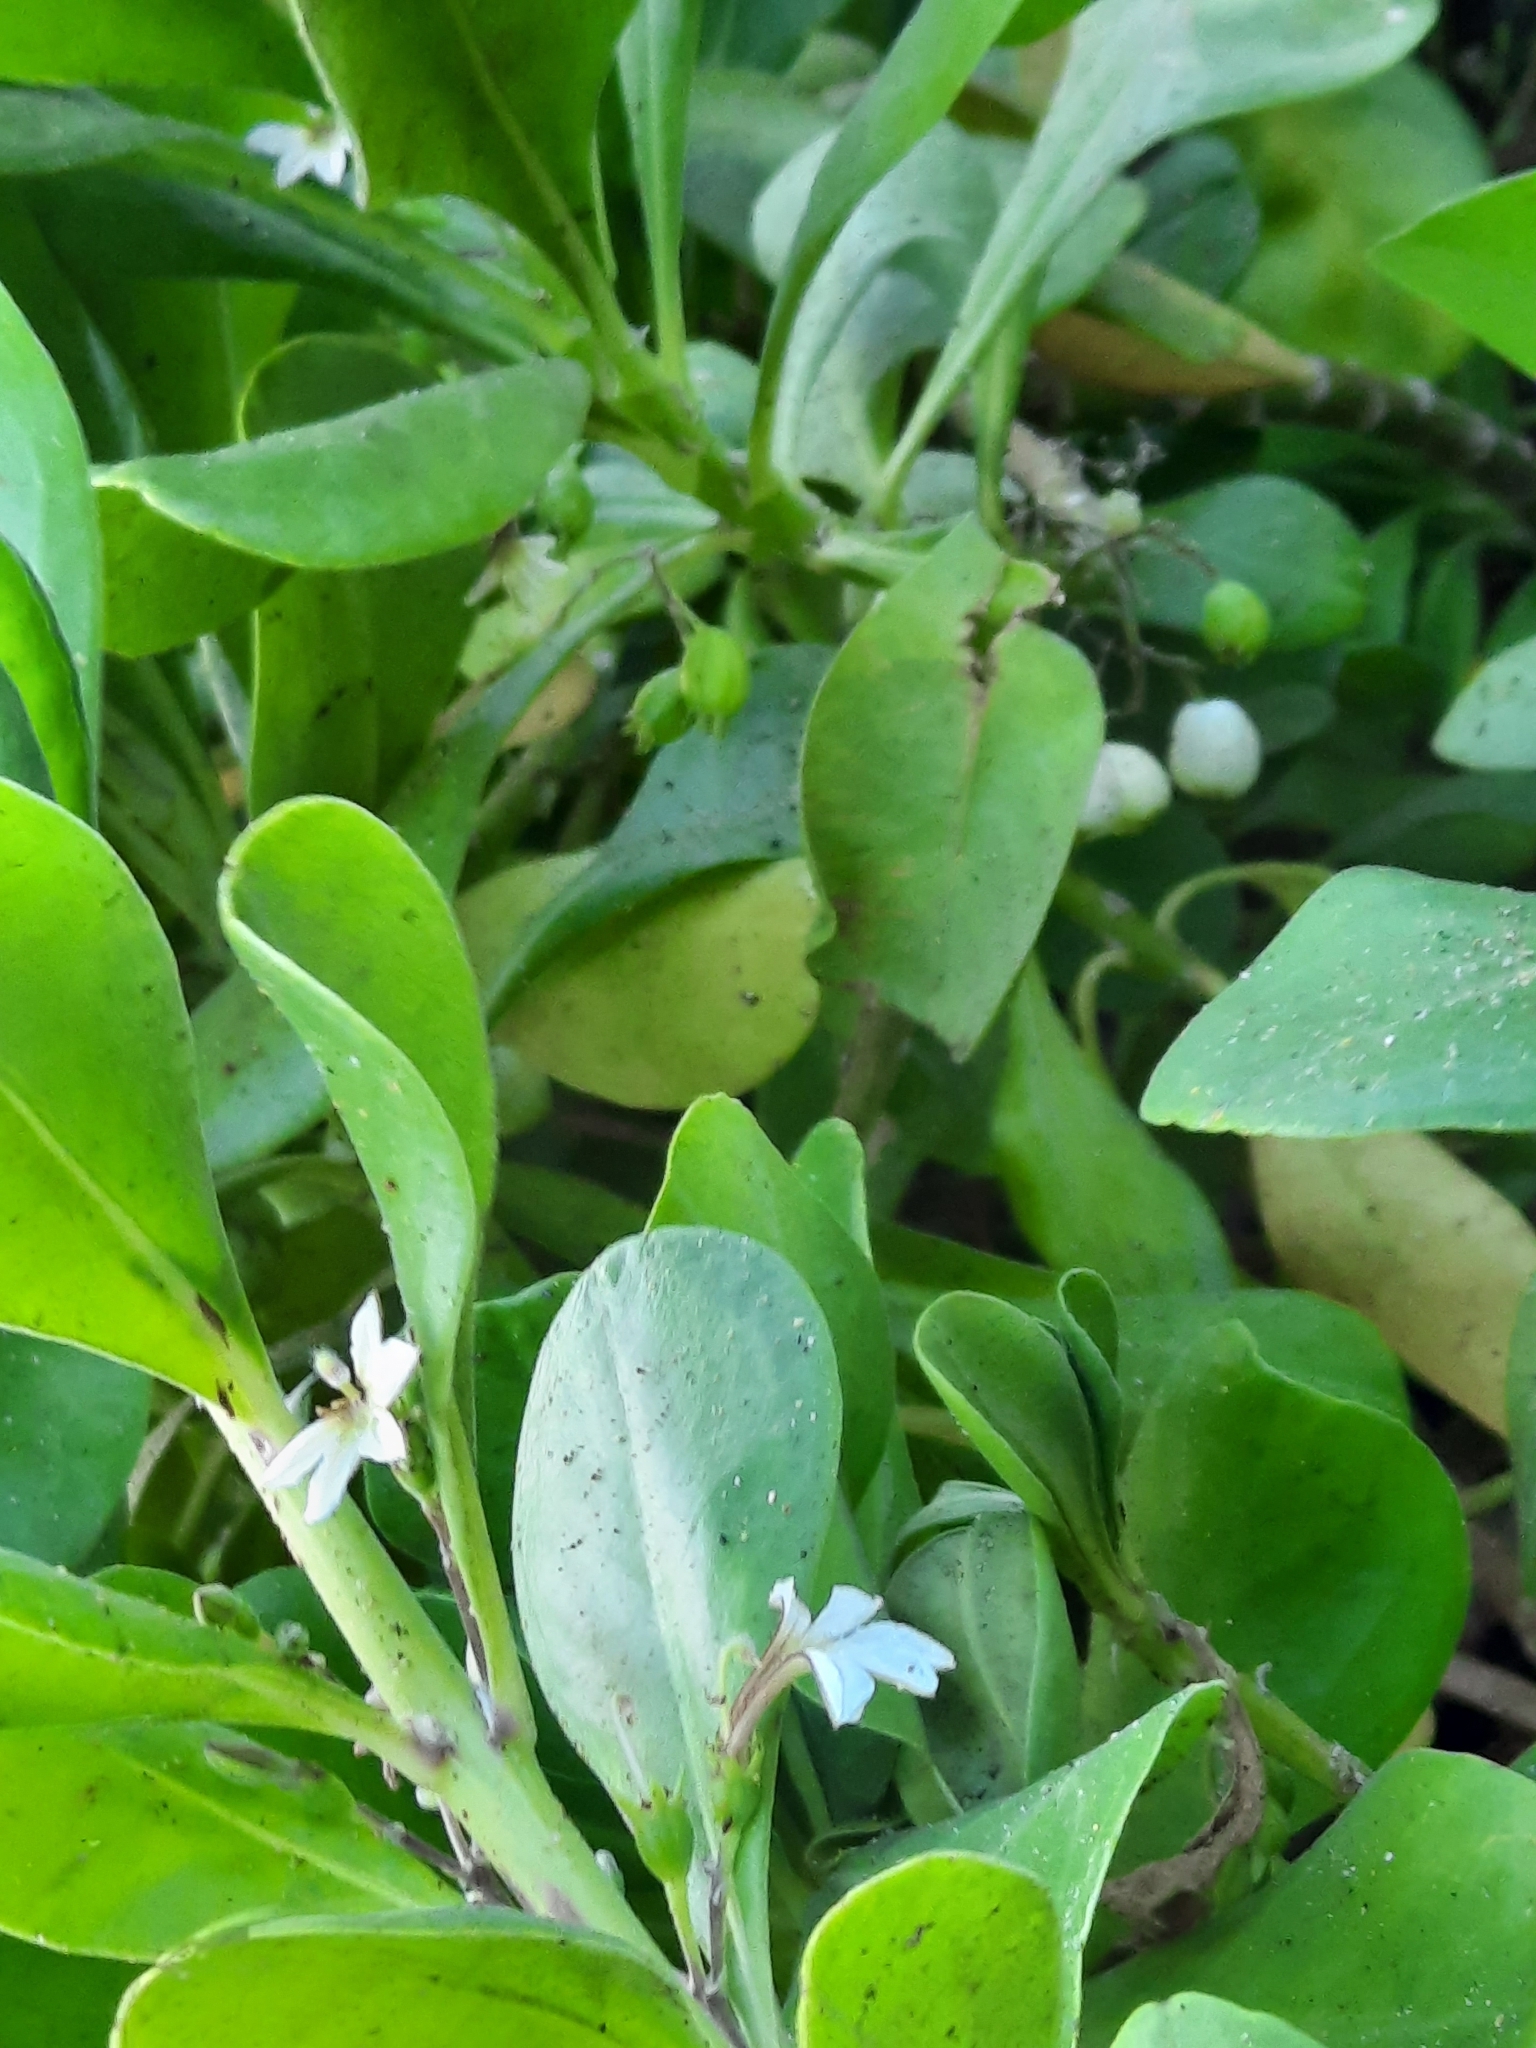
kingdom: Plantae
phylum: Tracheophyta
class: Magnoliopsida
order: Asterales
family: Goodeniaceae
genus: Scaevola
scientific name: Scaevola taccada
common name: Sea lettucetree
